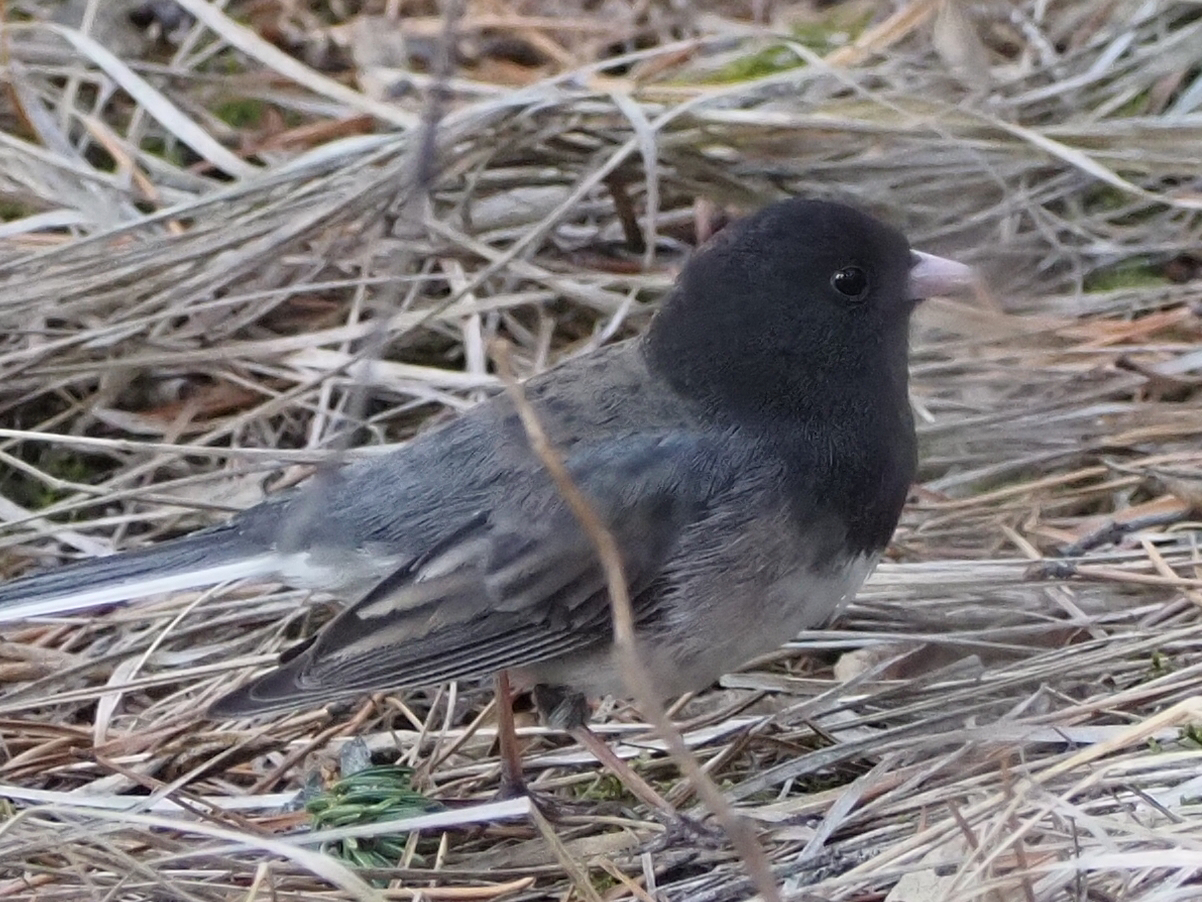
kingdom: Animalia
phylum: Chordata
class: Aves
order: Passeriformes
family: Passerellidae
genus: Junco
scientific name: Junco hyemalis
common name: Dark-eyed junco
